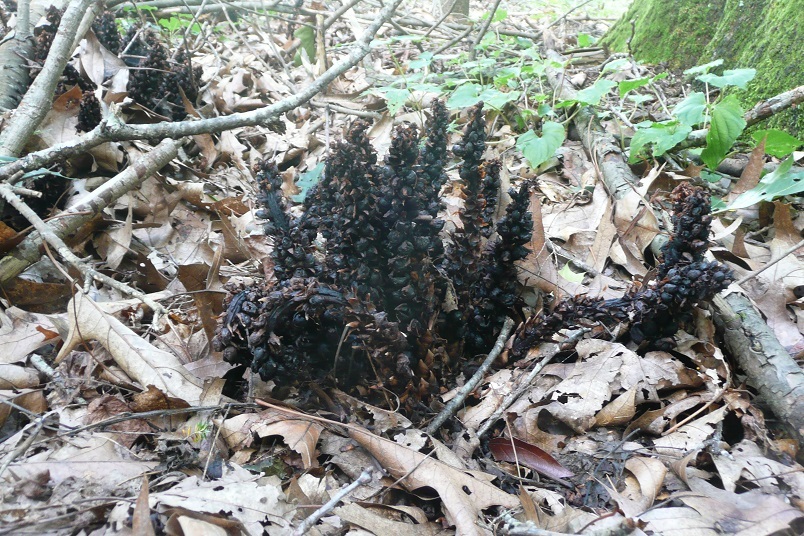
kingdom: Plantae
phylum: Tracheophyta
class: Magnoliopsida
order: Lamiales
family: Orobanchaceae
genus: Conopholis
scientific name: Conopholis americana
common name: American cancer-root
